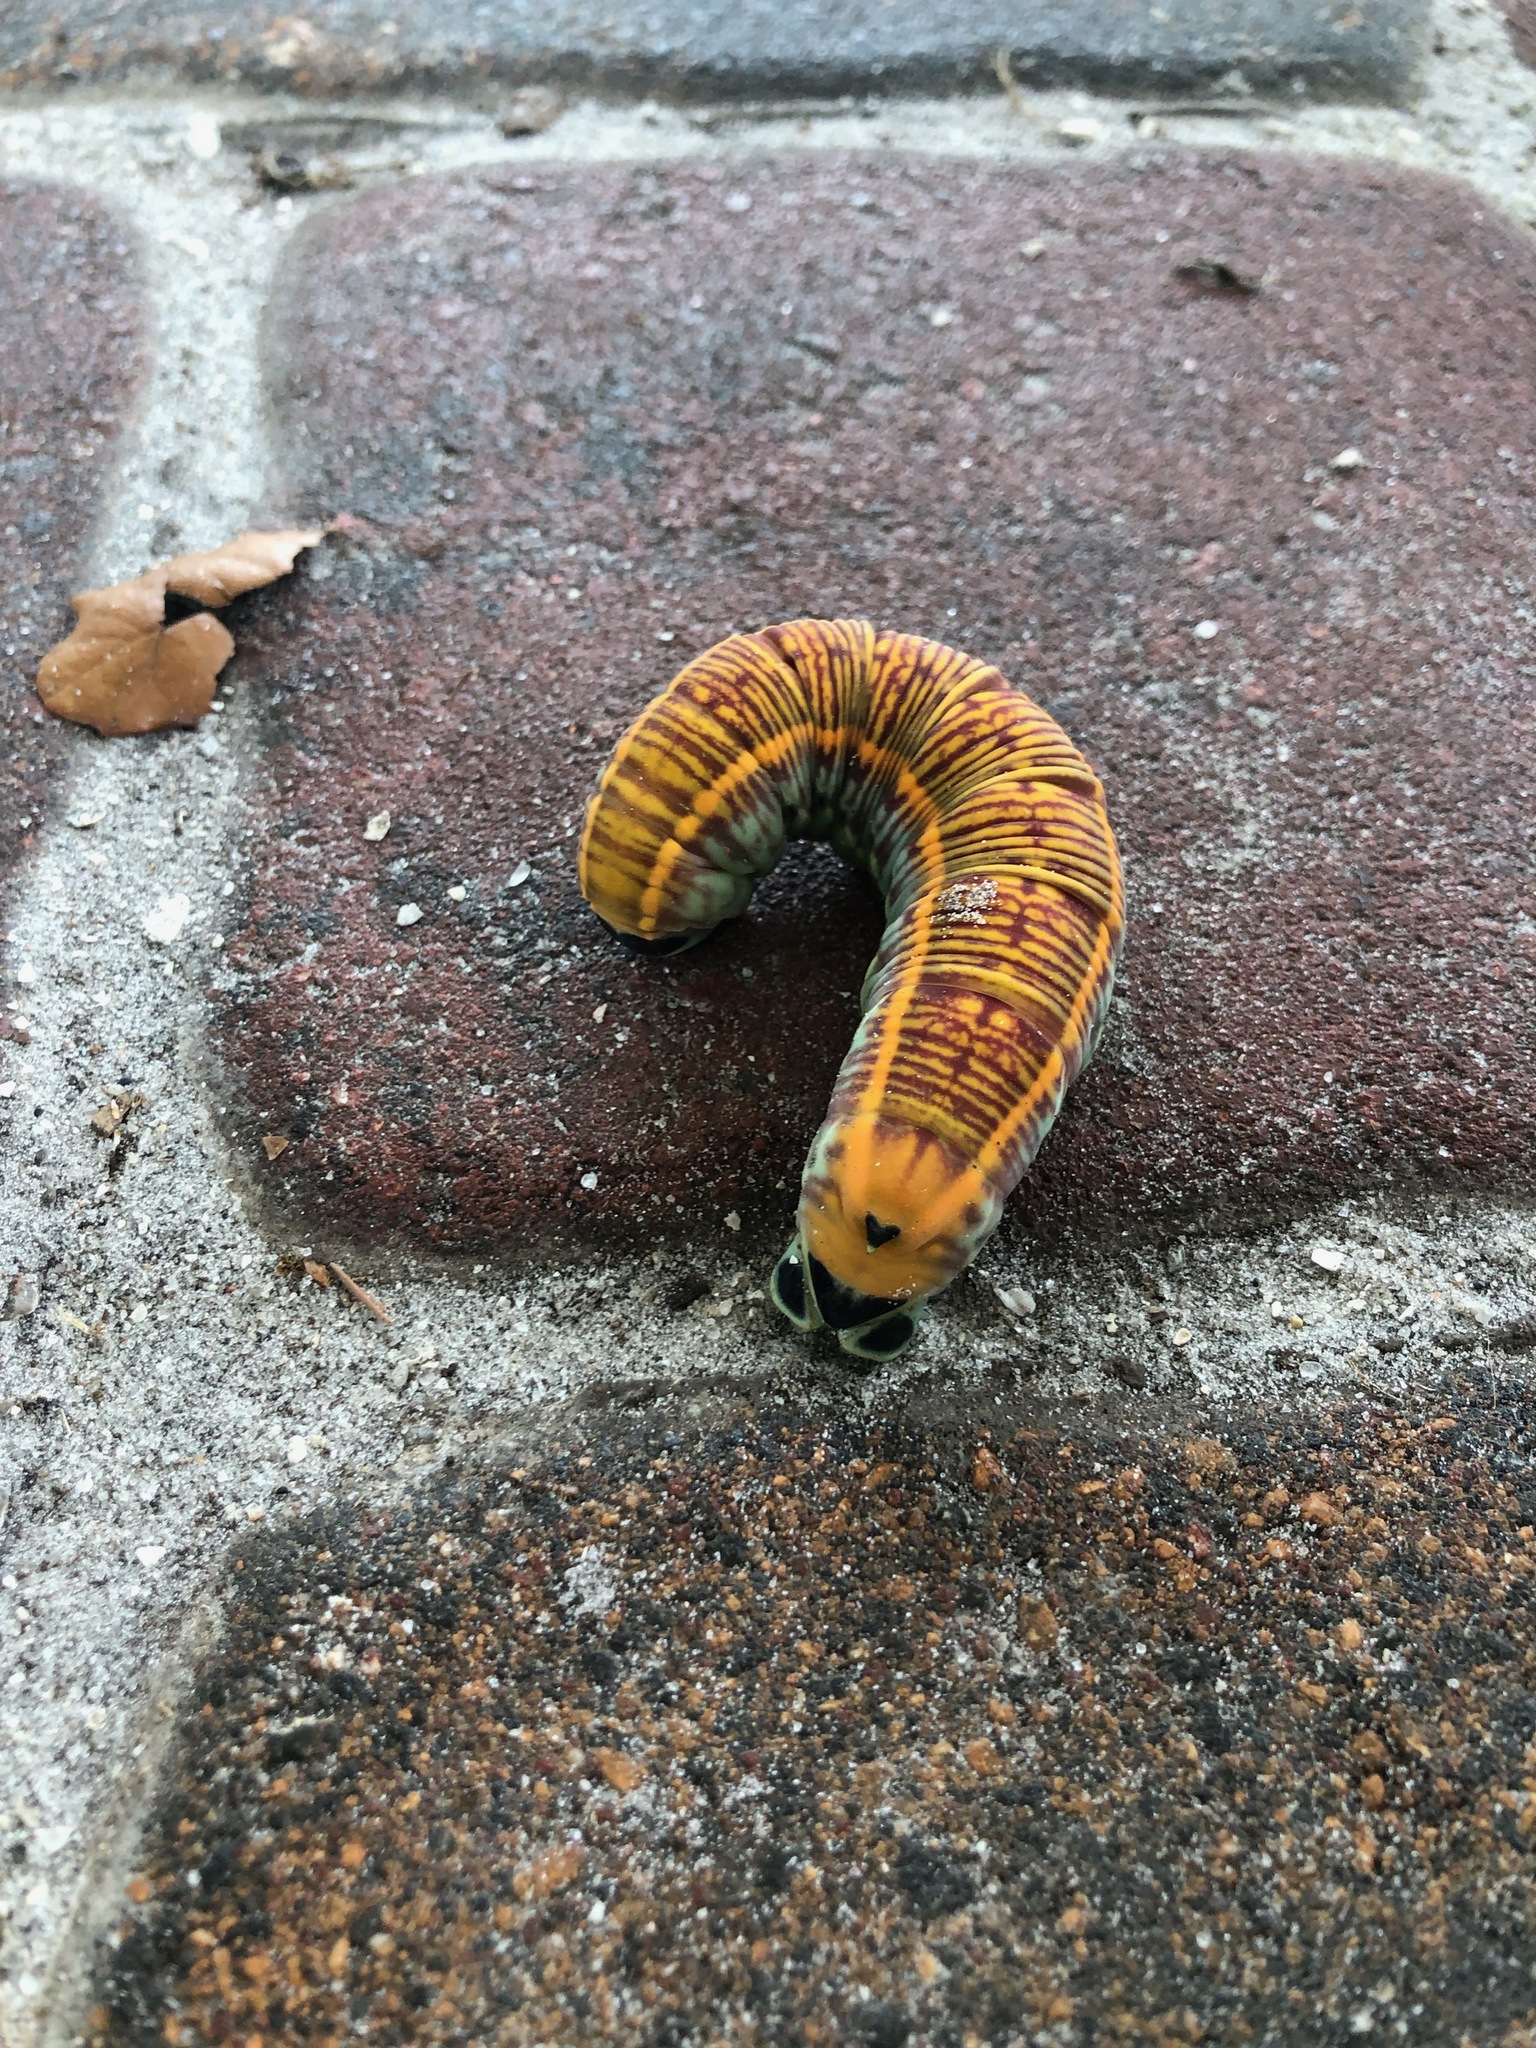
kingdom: Animalia
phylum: Arthropoda
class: Insecta
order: Lepidoptera
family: Sphingidae
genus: Pachylia
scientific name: Pachylia ficus
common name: Fig sphinx
